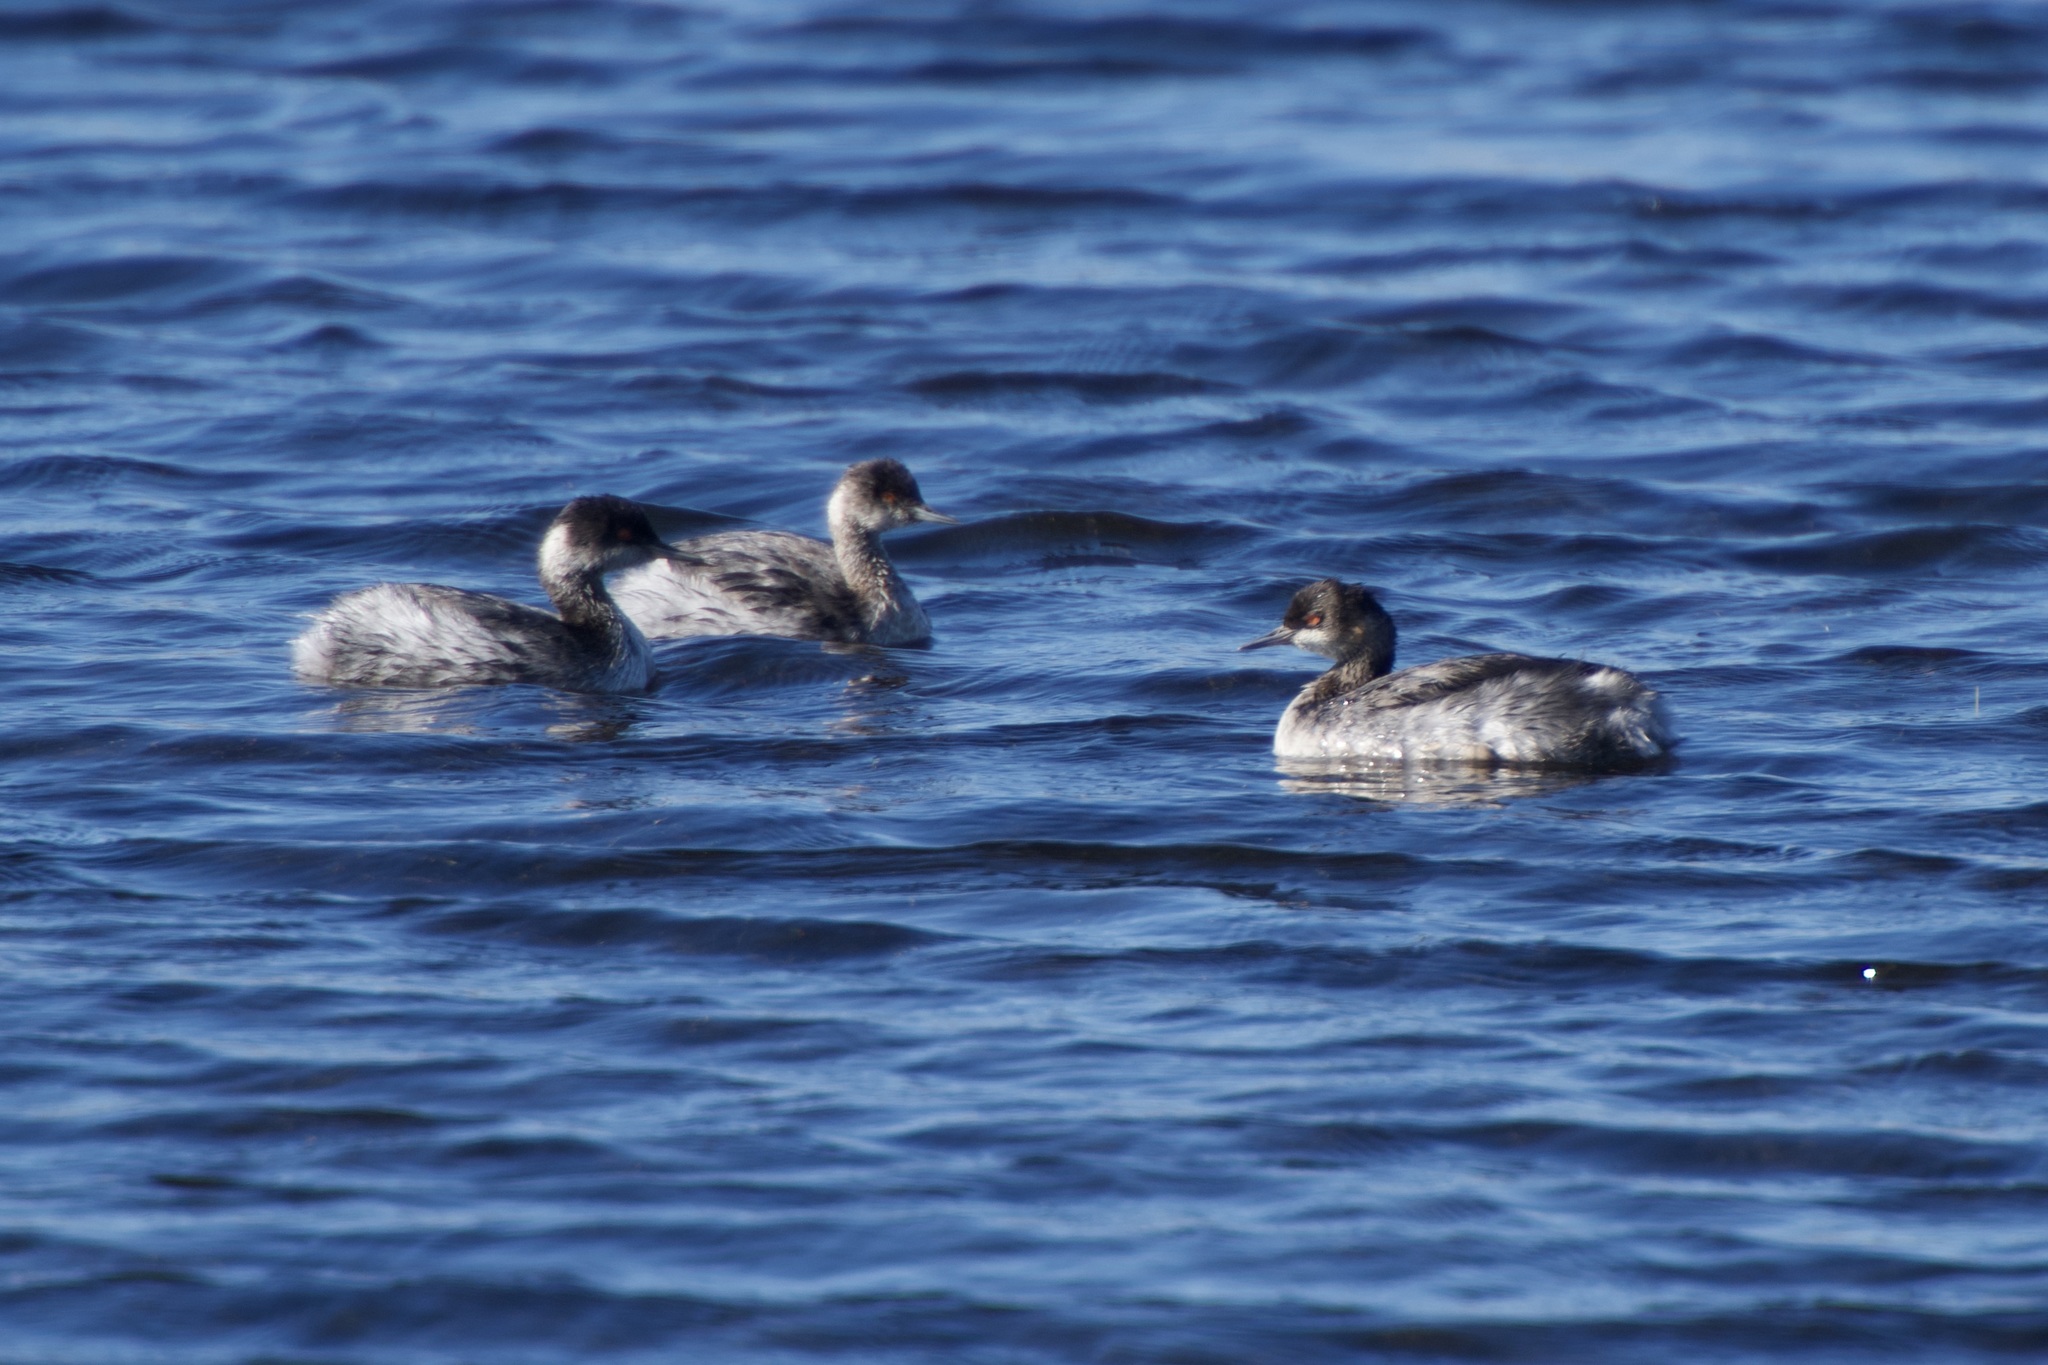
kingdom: Animalia
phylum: Chordata
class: Aves
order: Podicipediformes
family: Podicipedidae
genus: Podiceps
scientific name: Podiceps nigricollis
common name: Black-necked grebe
